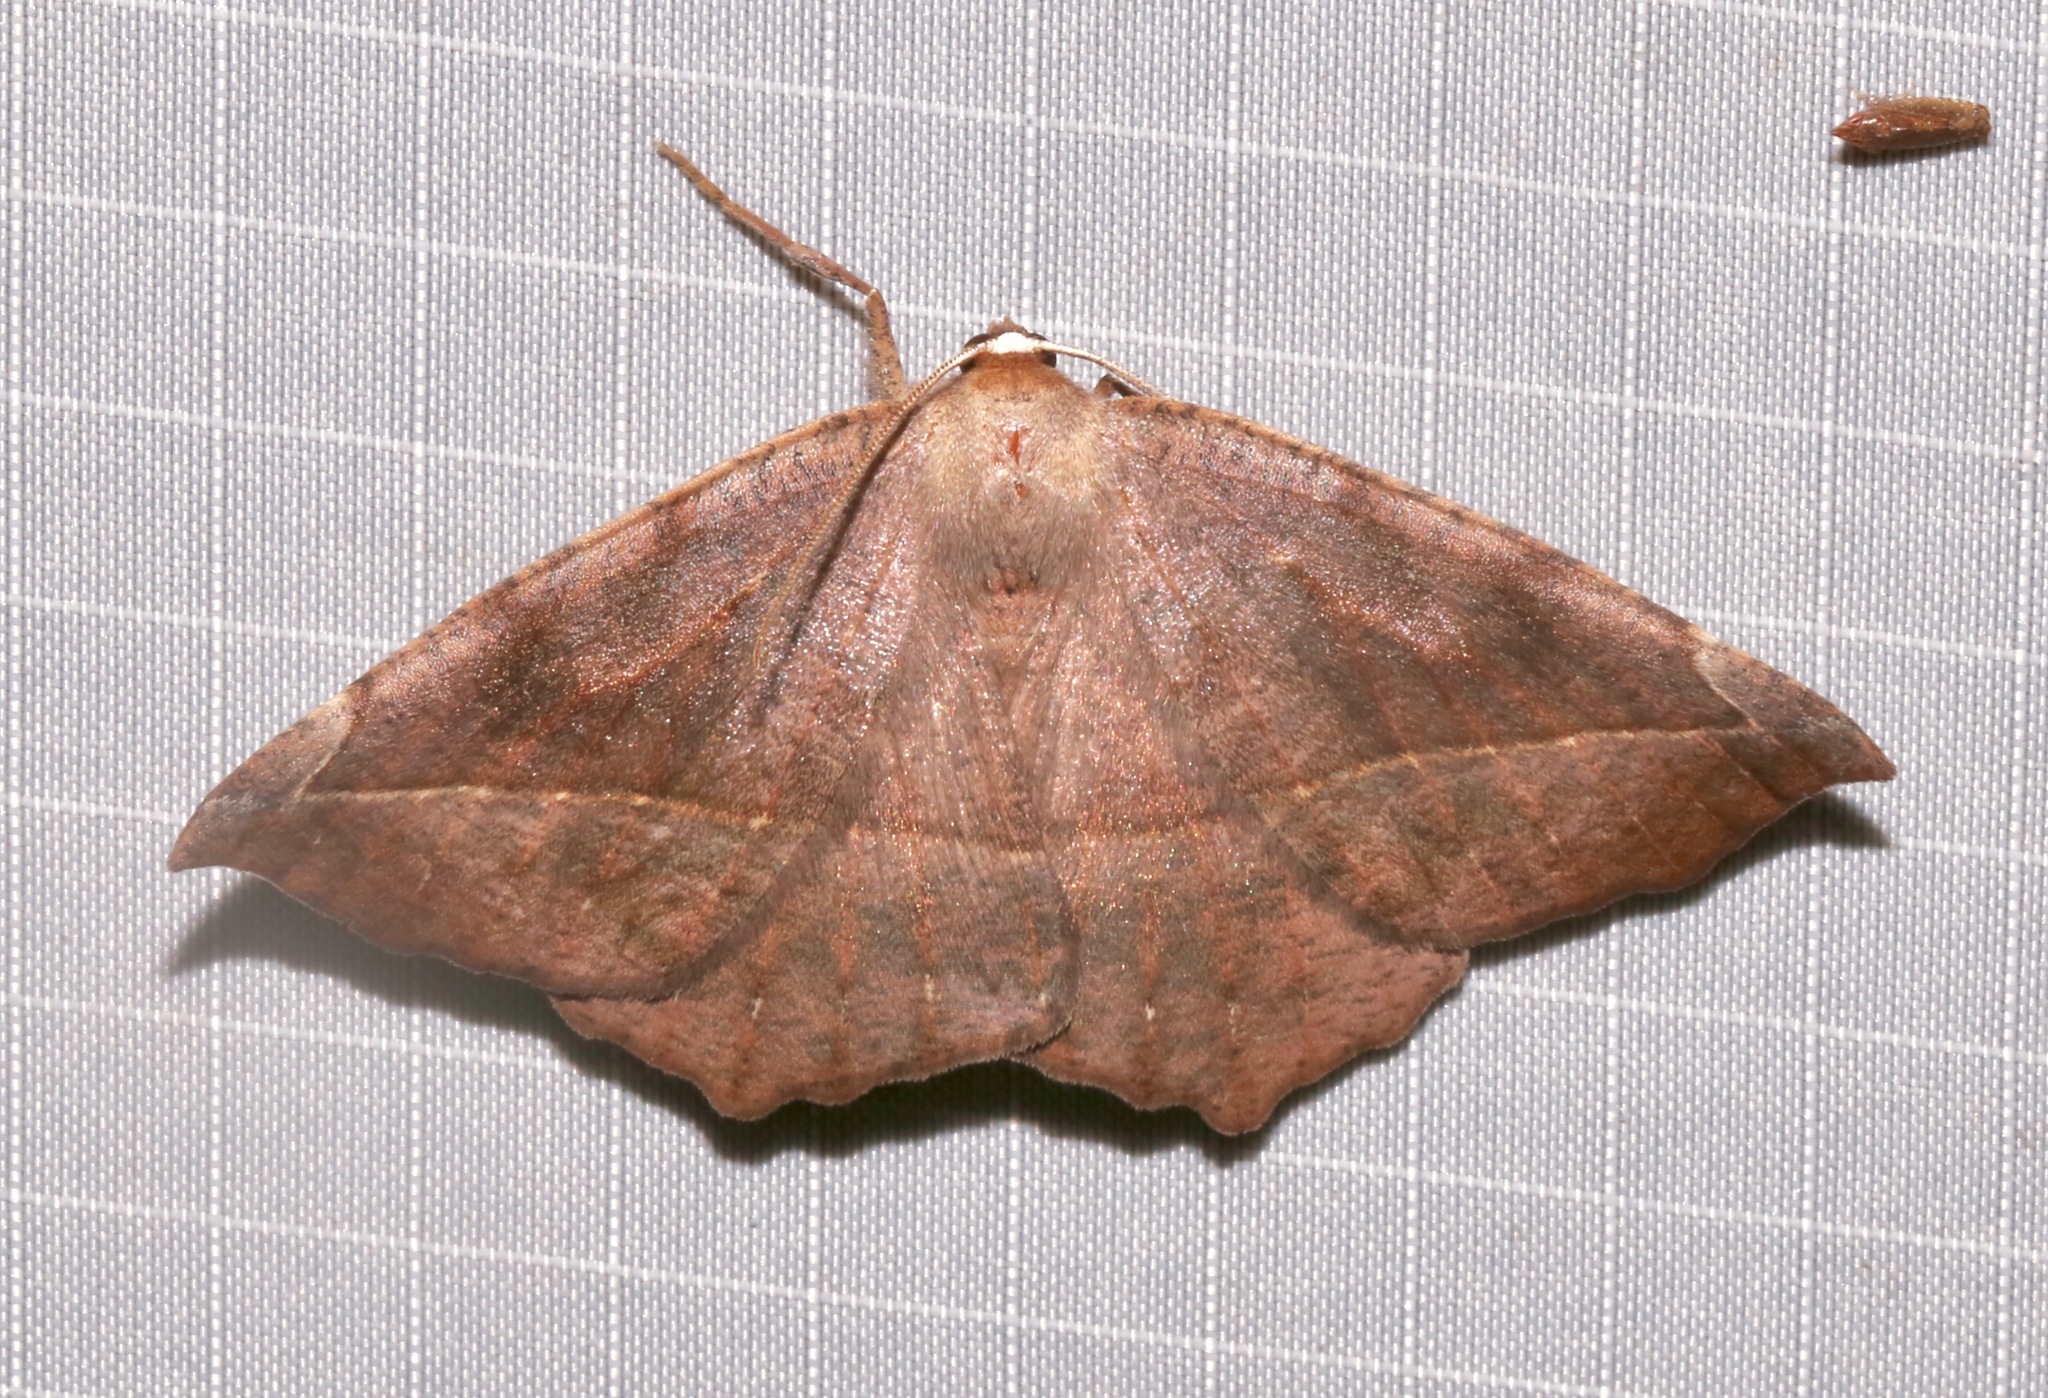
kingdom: Animalia
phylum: Arthropoda
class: Insecta
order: Lepidoptera
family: Geometridae
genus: Eutrapela
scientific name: Eutrapela clemataria
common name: Curved-toothed geometer
